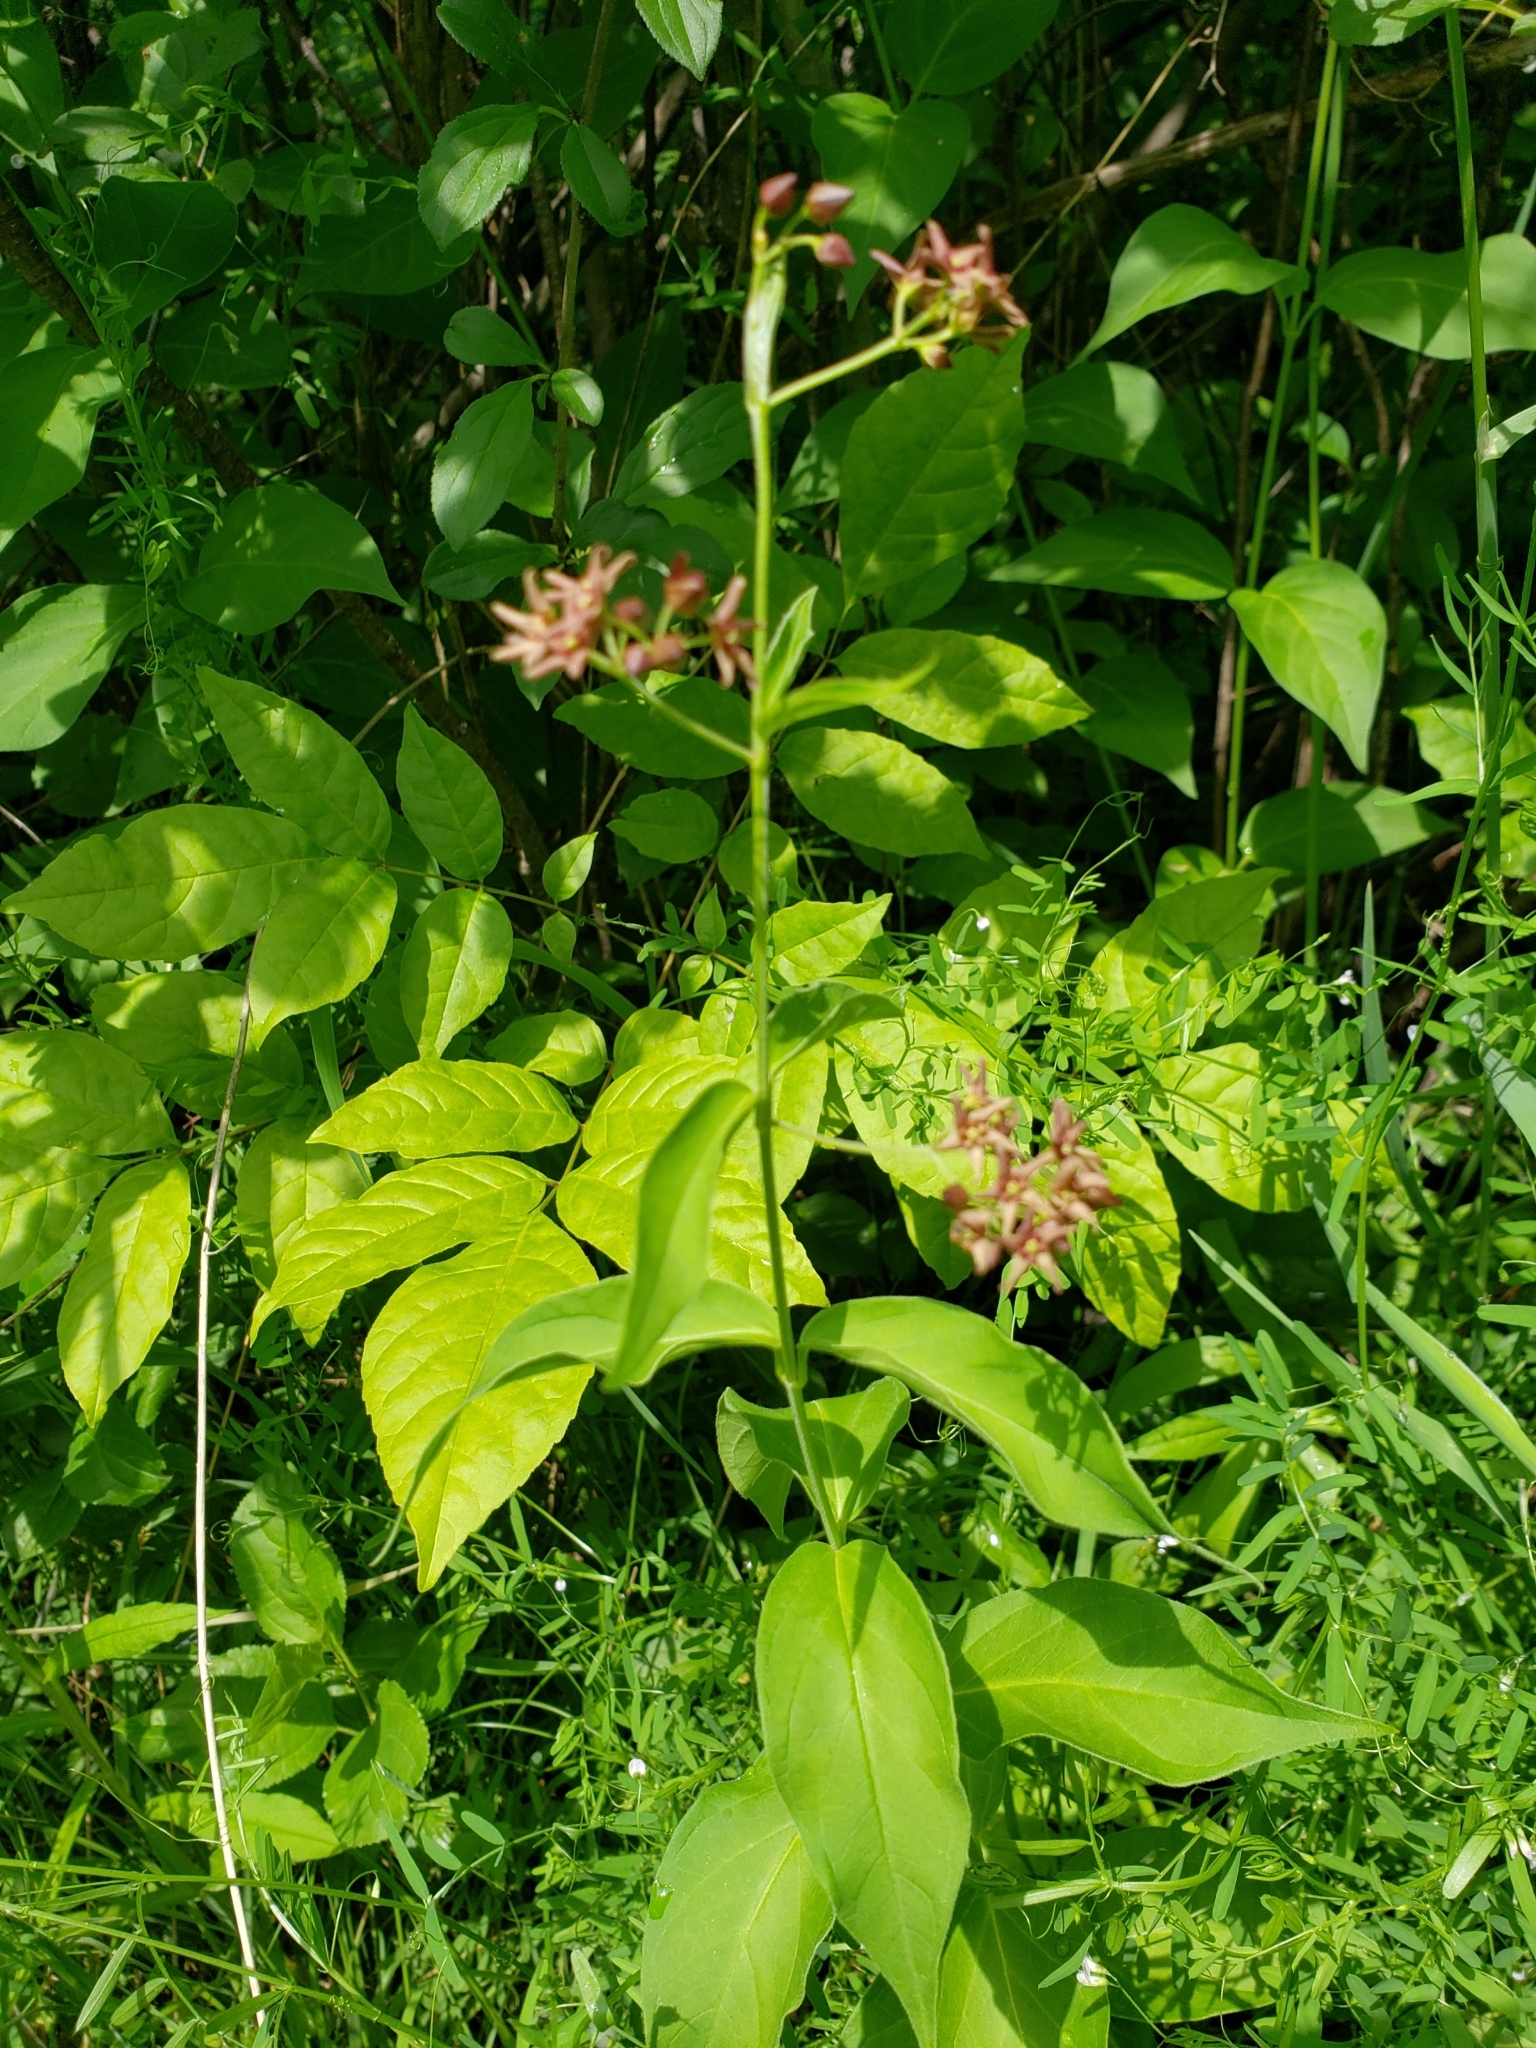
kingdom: Plantae
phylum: Tracheophyta
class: Magnoliopsida
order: Gentianales
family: Apocynaceae
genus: Vincetoxicum
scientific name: Vincetoxicum rossicum
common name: Dog-strangling vine
